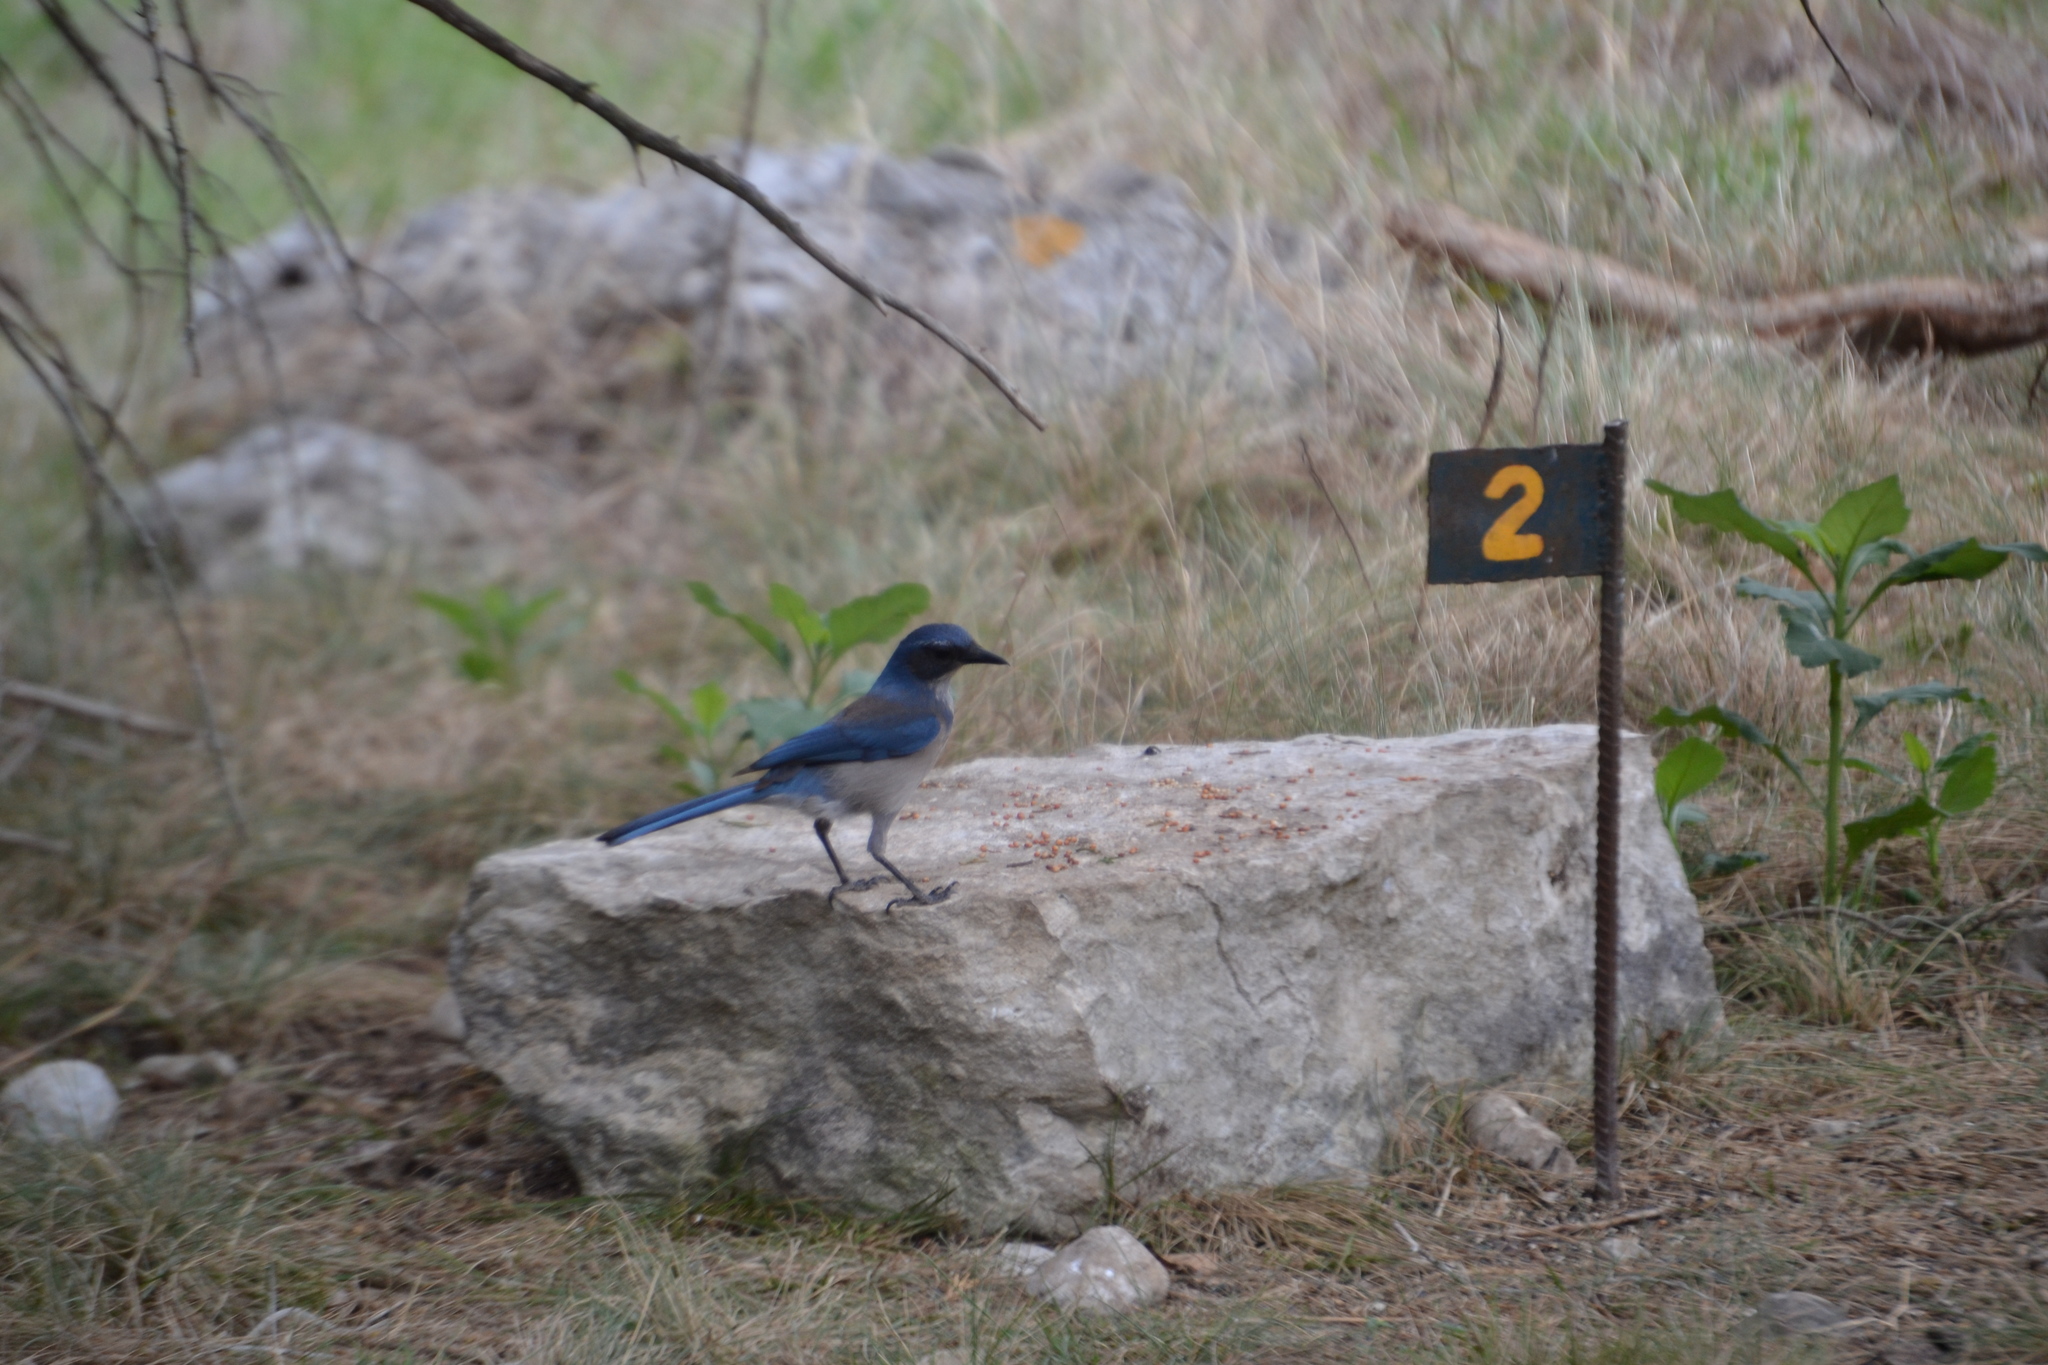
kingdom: Animalia
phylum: Chordata
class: Aves
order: Passeriformes
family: Corvidae
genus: Aphelocoma
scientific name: Aphelocoma woodhouseii
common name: Woodhouse's scrub-jay
